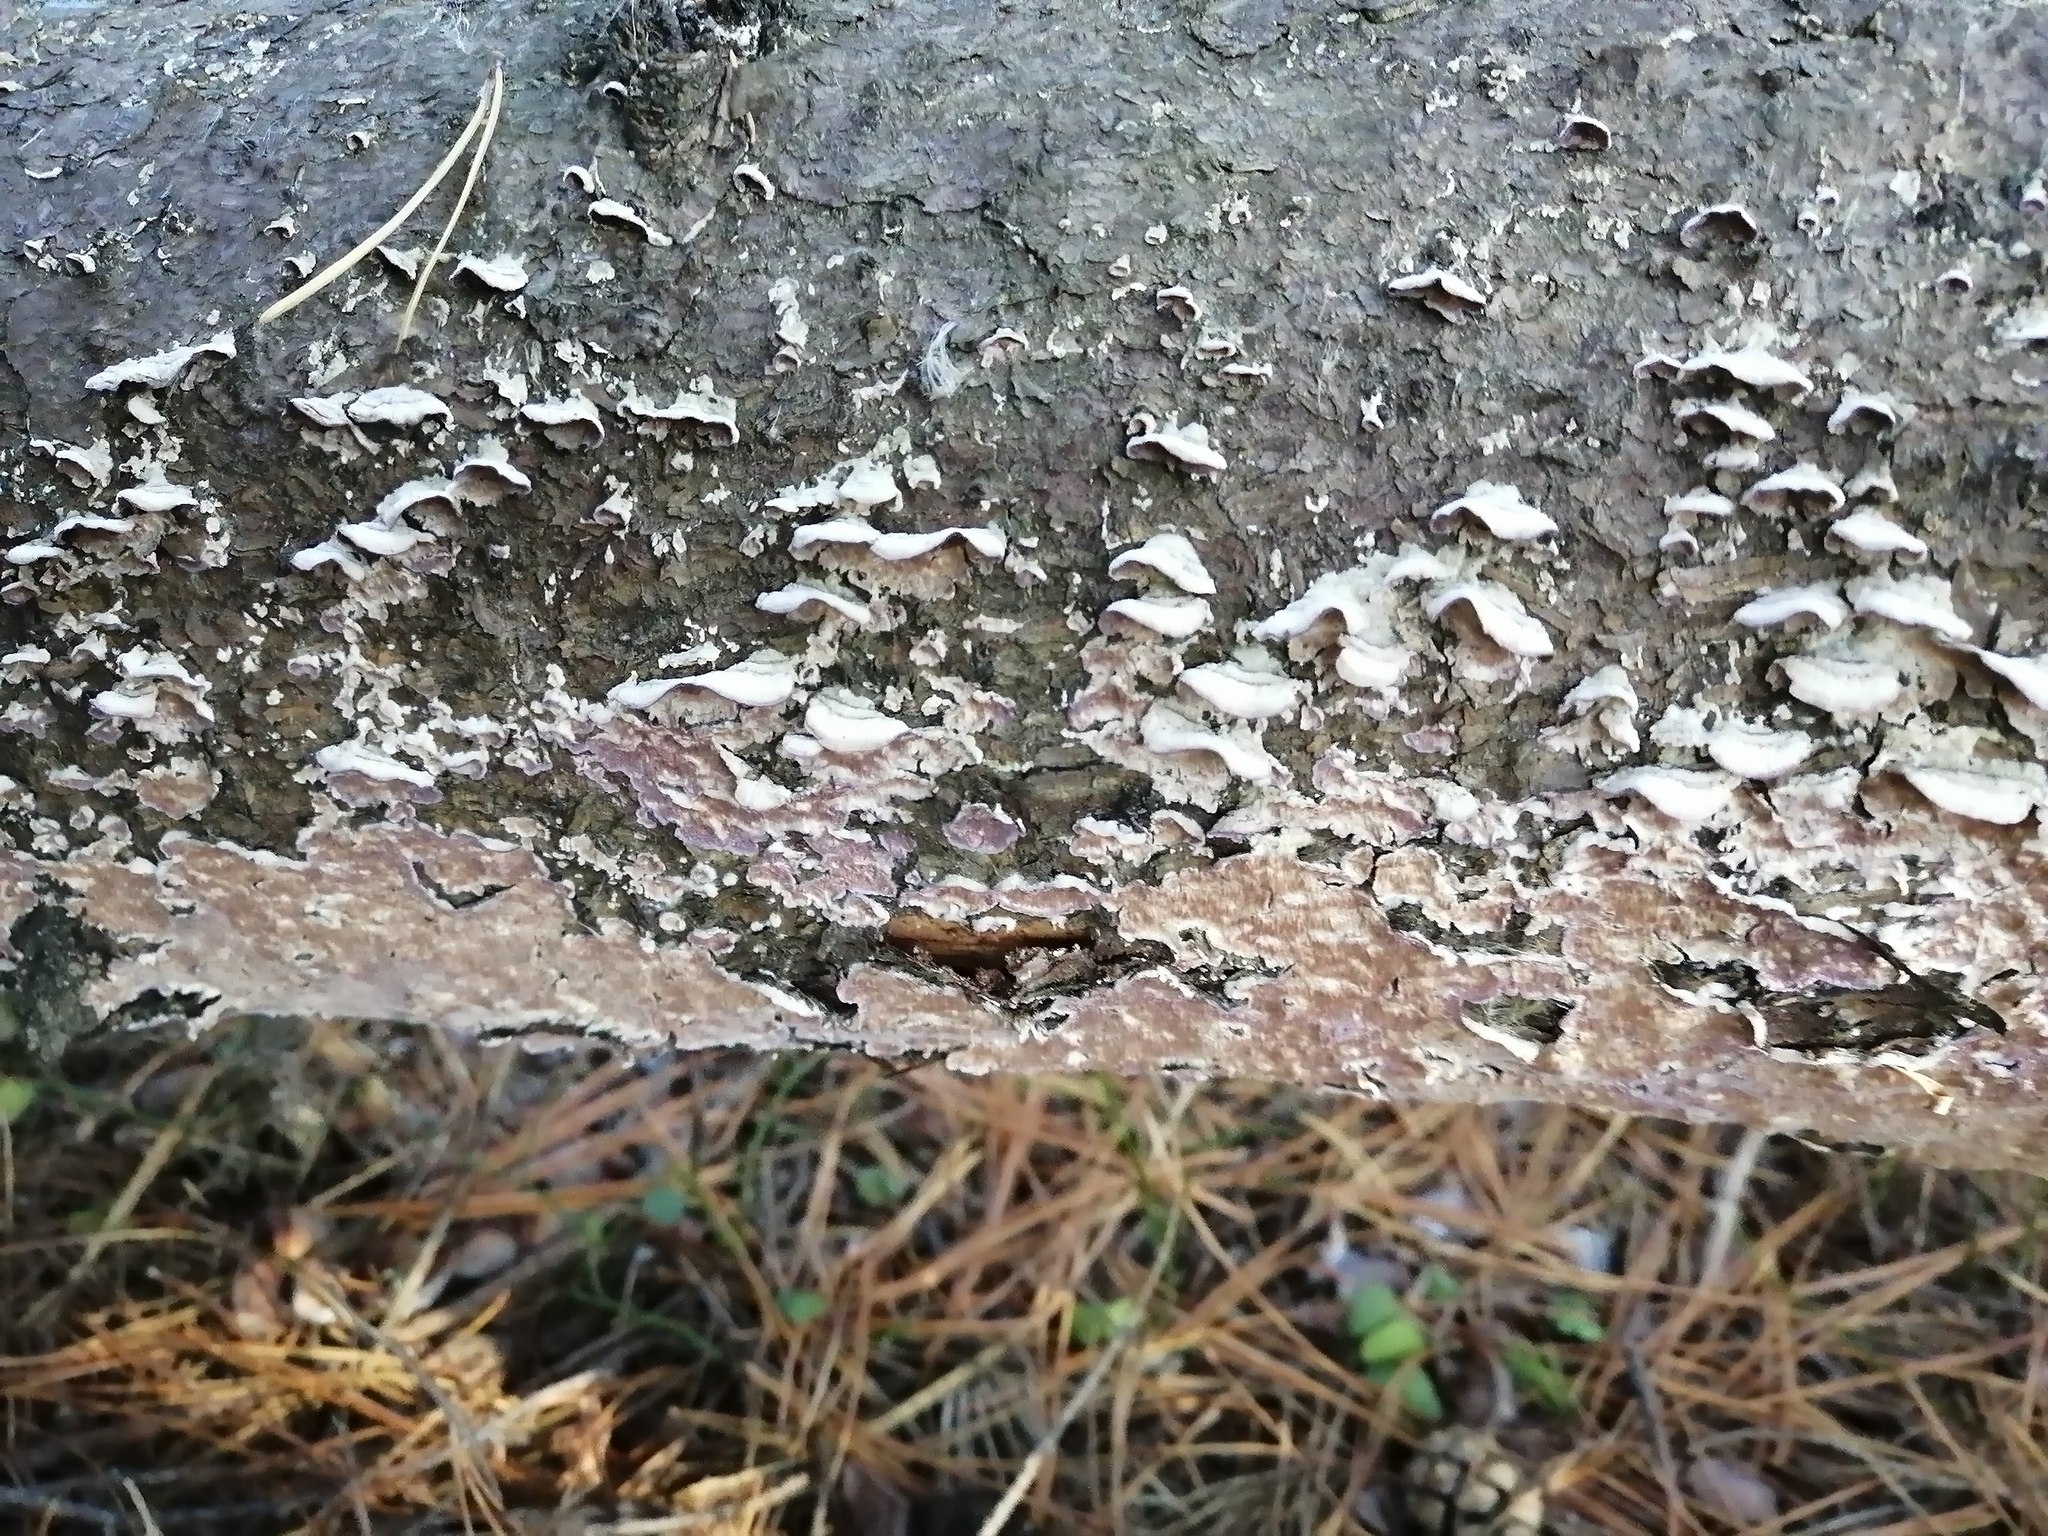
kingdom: Fungi
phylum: Basidiomycota
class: Agaricomycetes
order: Hymenochaetales
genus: Trichaptum
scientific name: Trichaptum biforme
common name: Violet-toothed polypore
